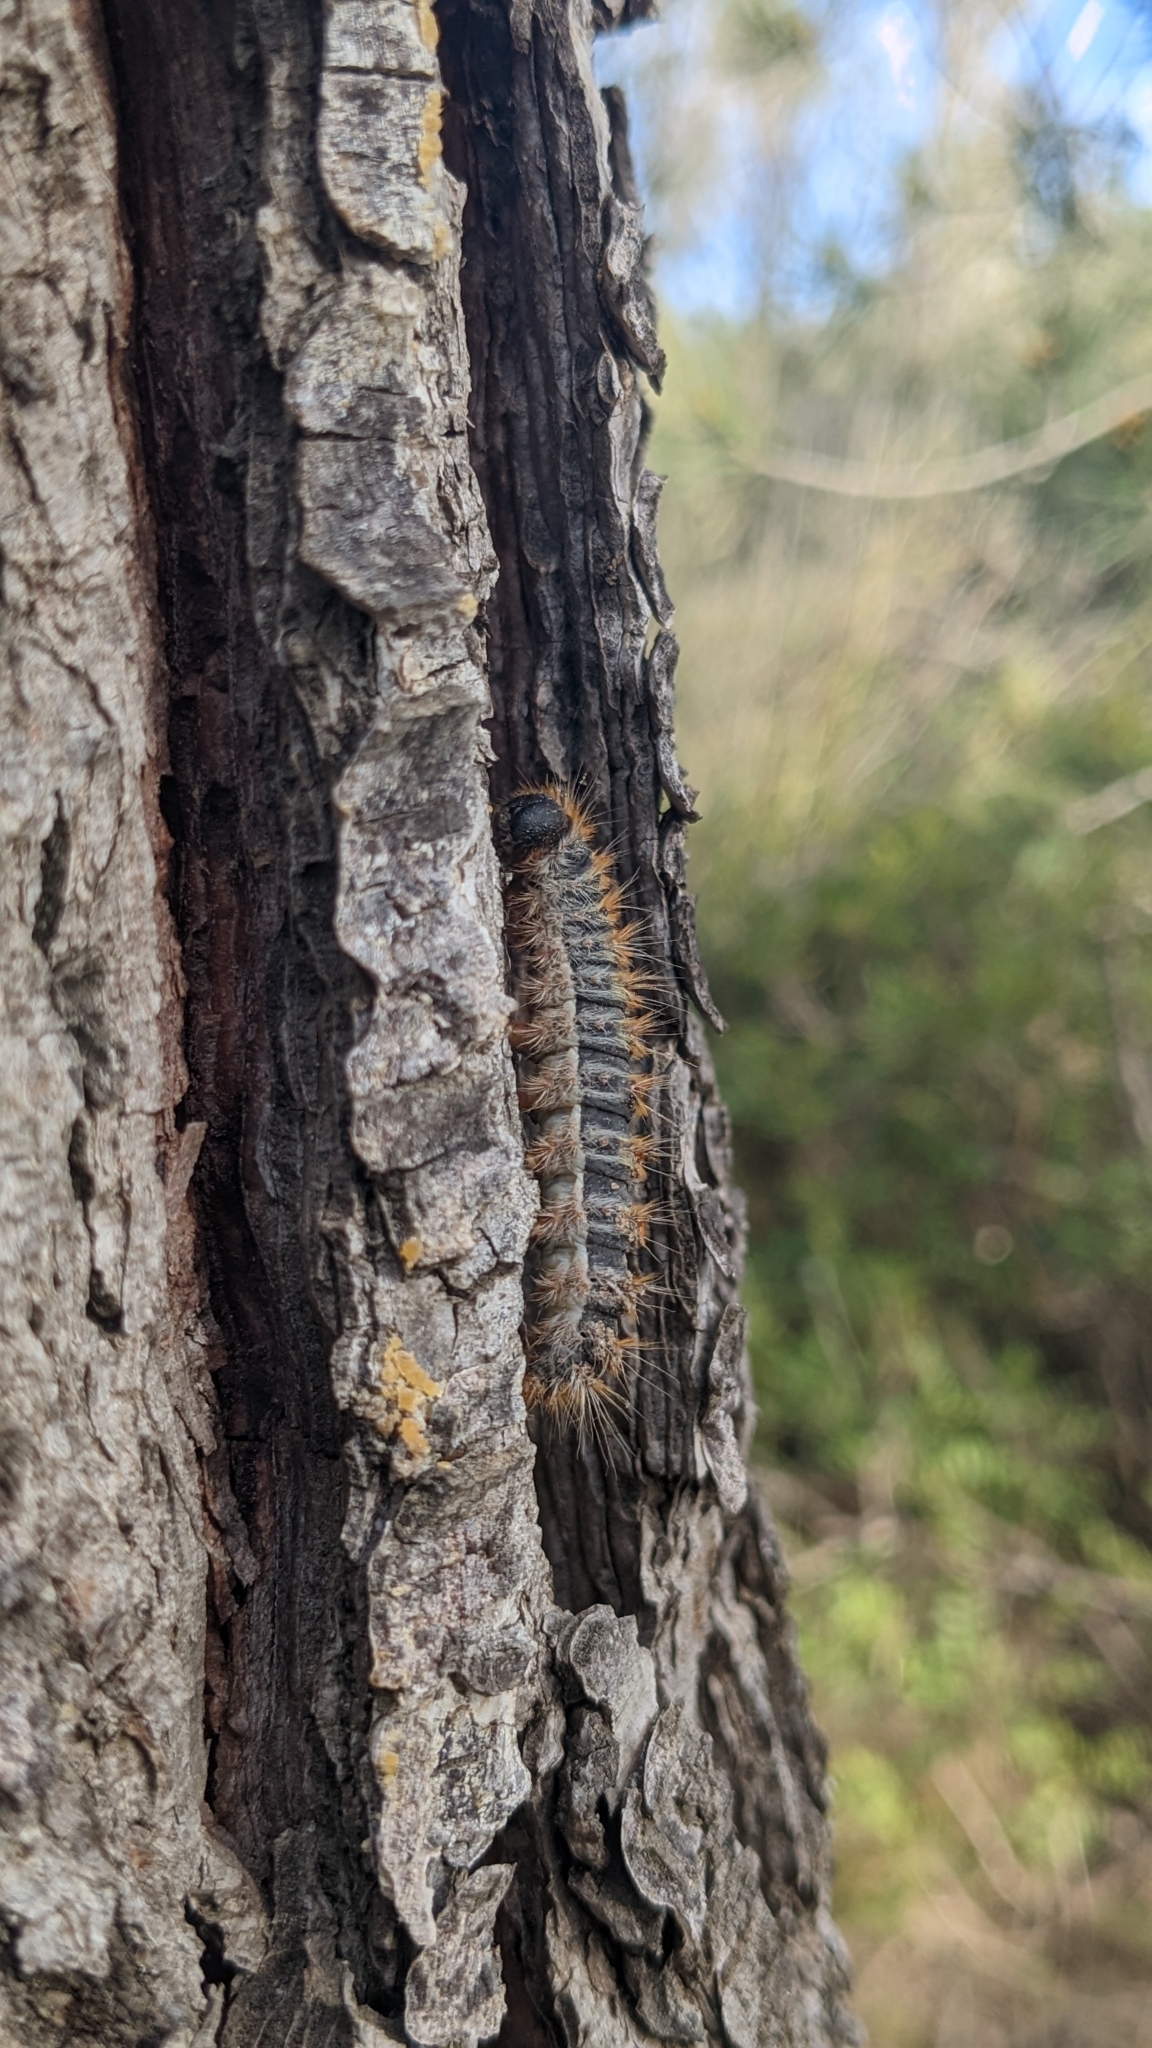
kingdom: Animalia
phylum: Arthropoda
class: Insecta
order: Lepidoptera
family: Notodontidae
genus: Thaumetopoea
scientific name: Thaumetopoea pityocampa
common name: Pine processionary
